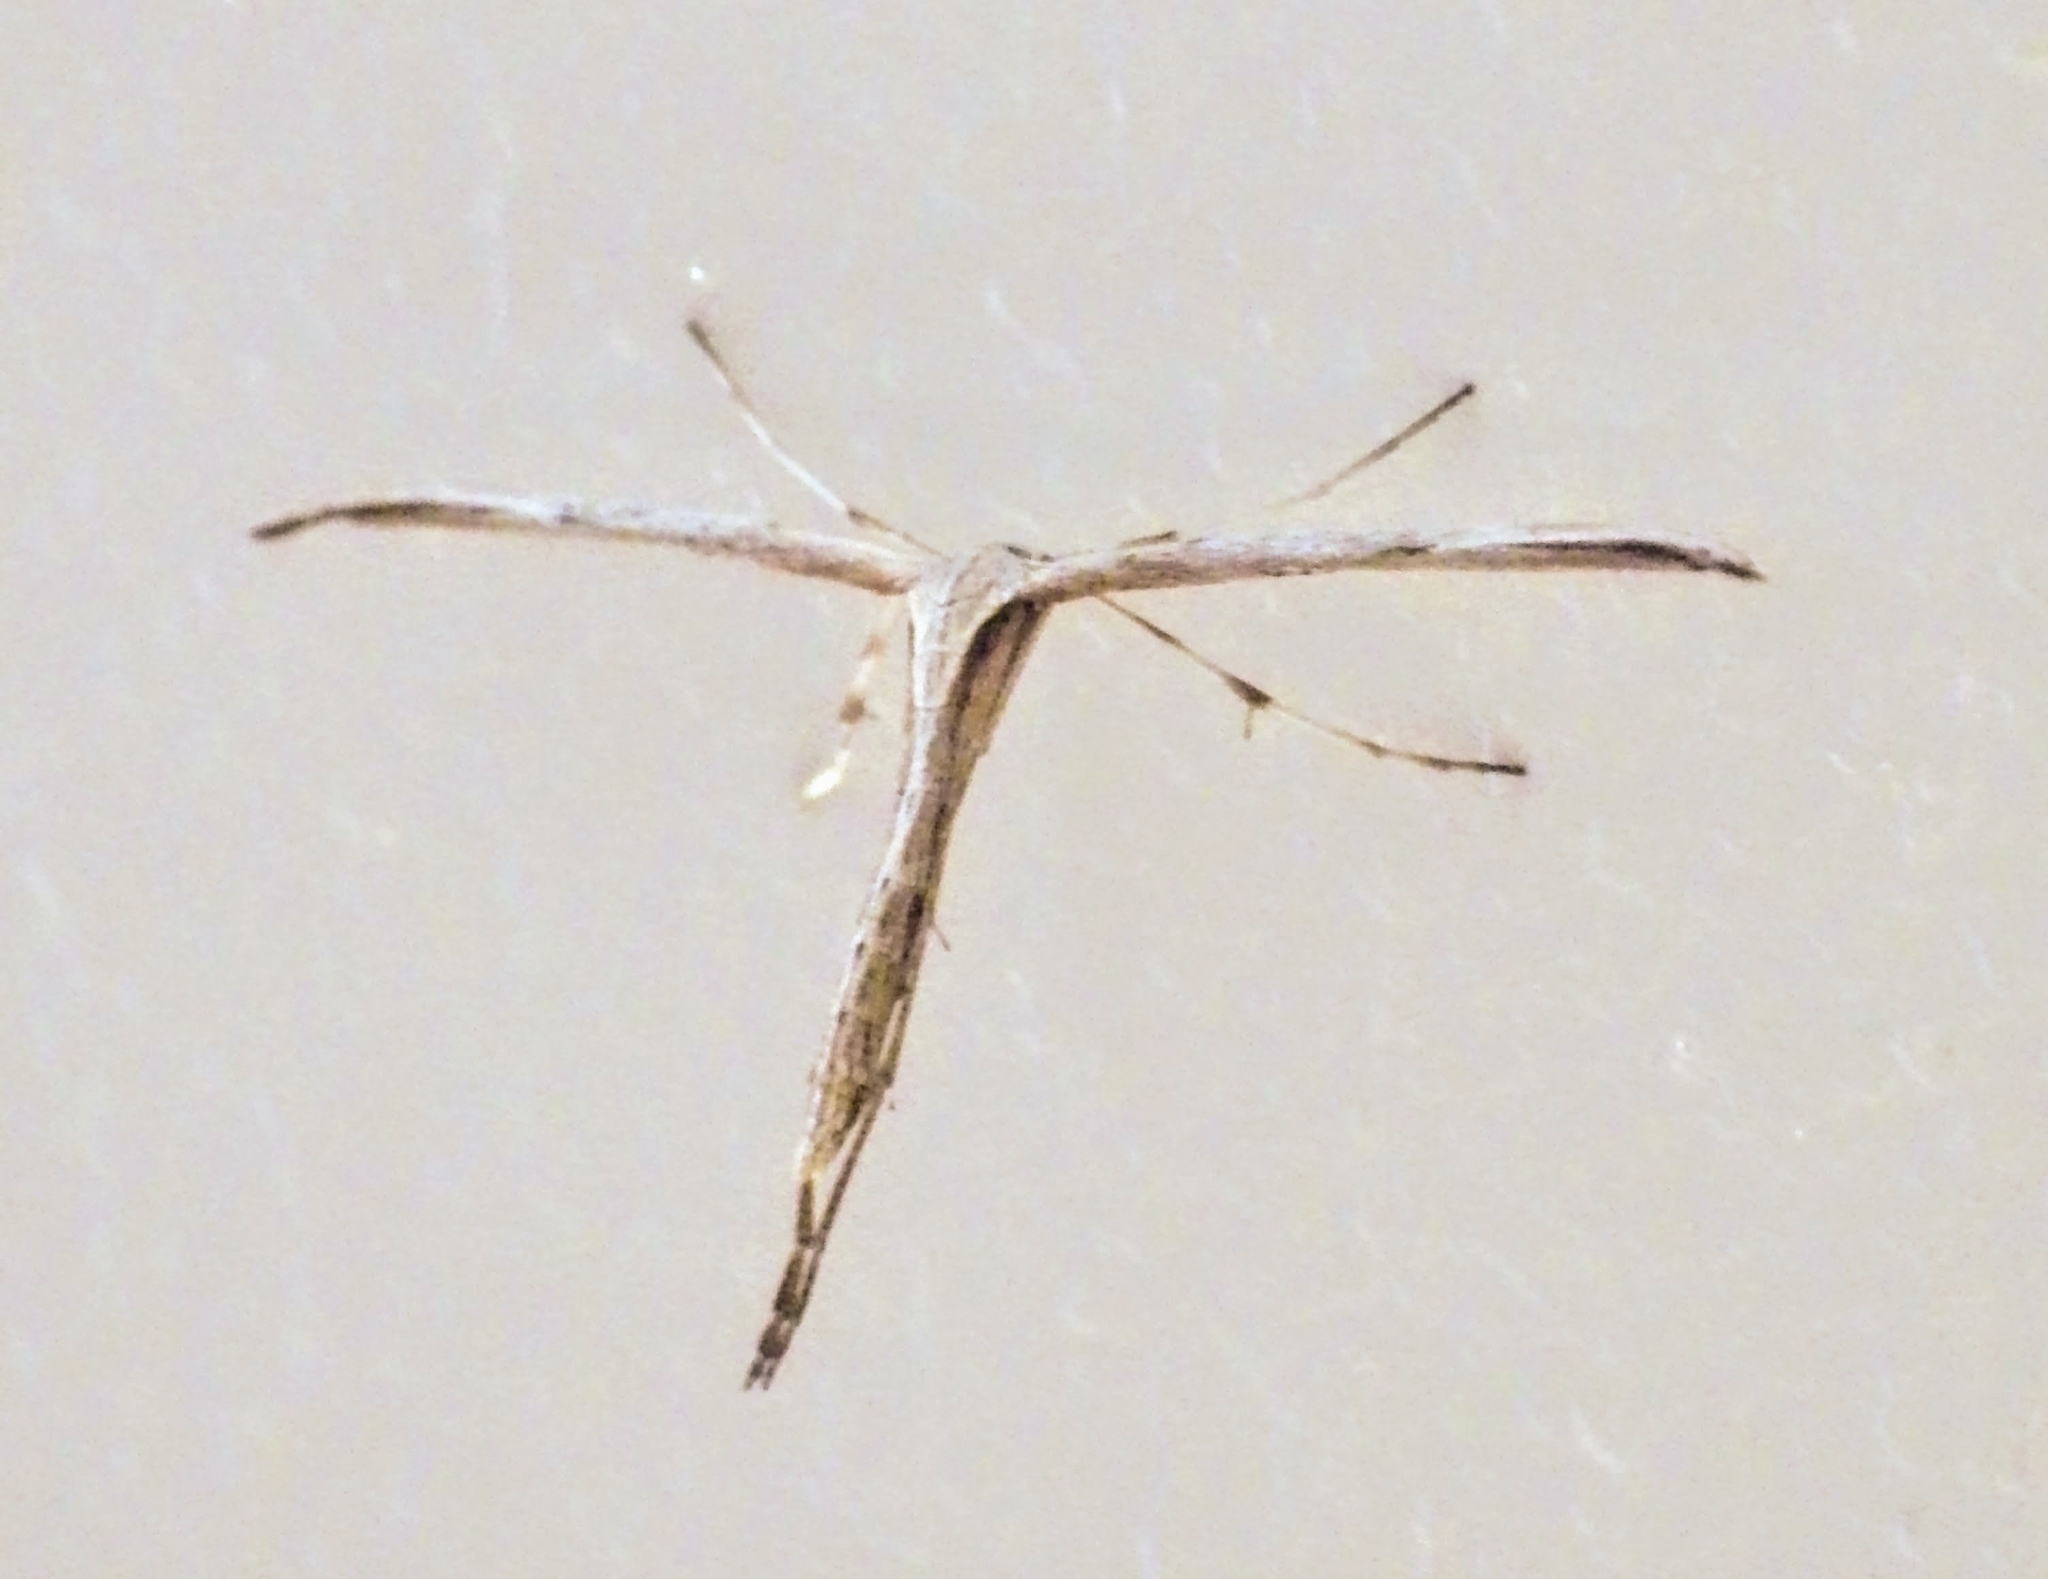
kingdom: Animalia
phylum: Arthropoda
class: Insecta
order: Lepidoptera
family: Pterophoridae
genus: Emmelina
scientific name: Emmelina monodactyla
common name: Common plume
